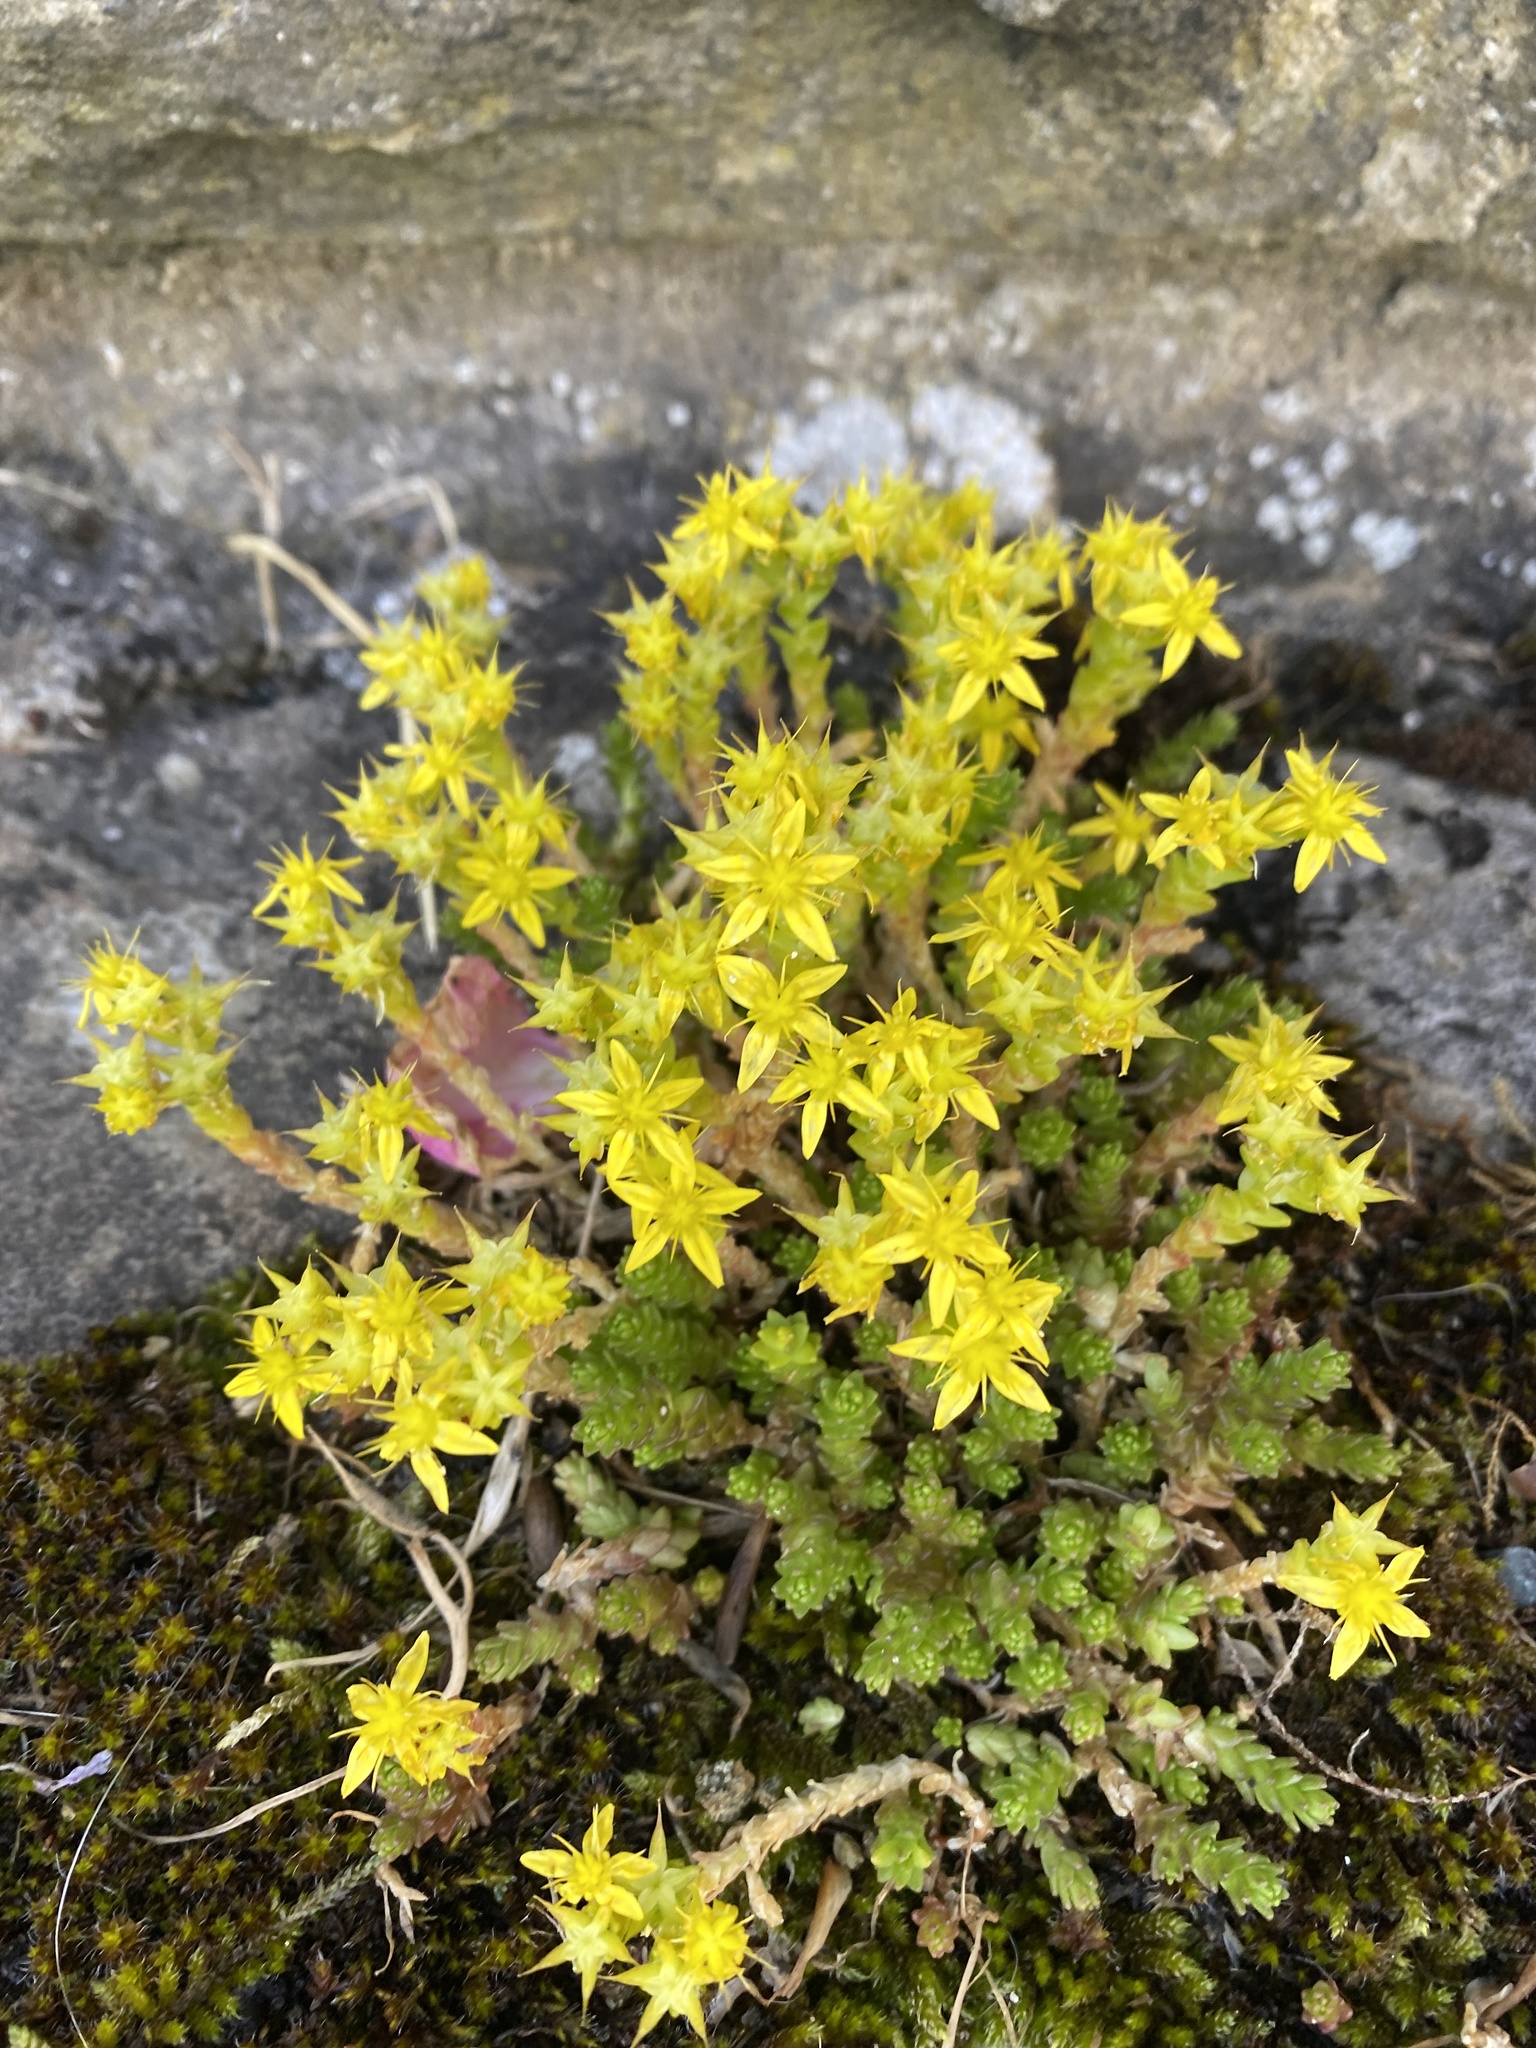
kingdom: Plantae
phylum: Tracheophyta
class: Magnoliopsida
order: Saxifragales
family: Crassulaceae
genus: Sedum
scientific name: Sedum acre
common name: Biting stonecrop
